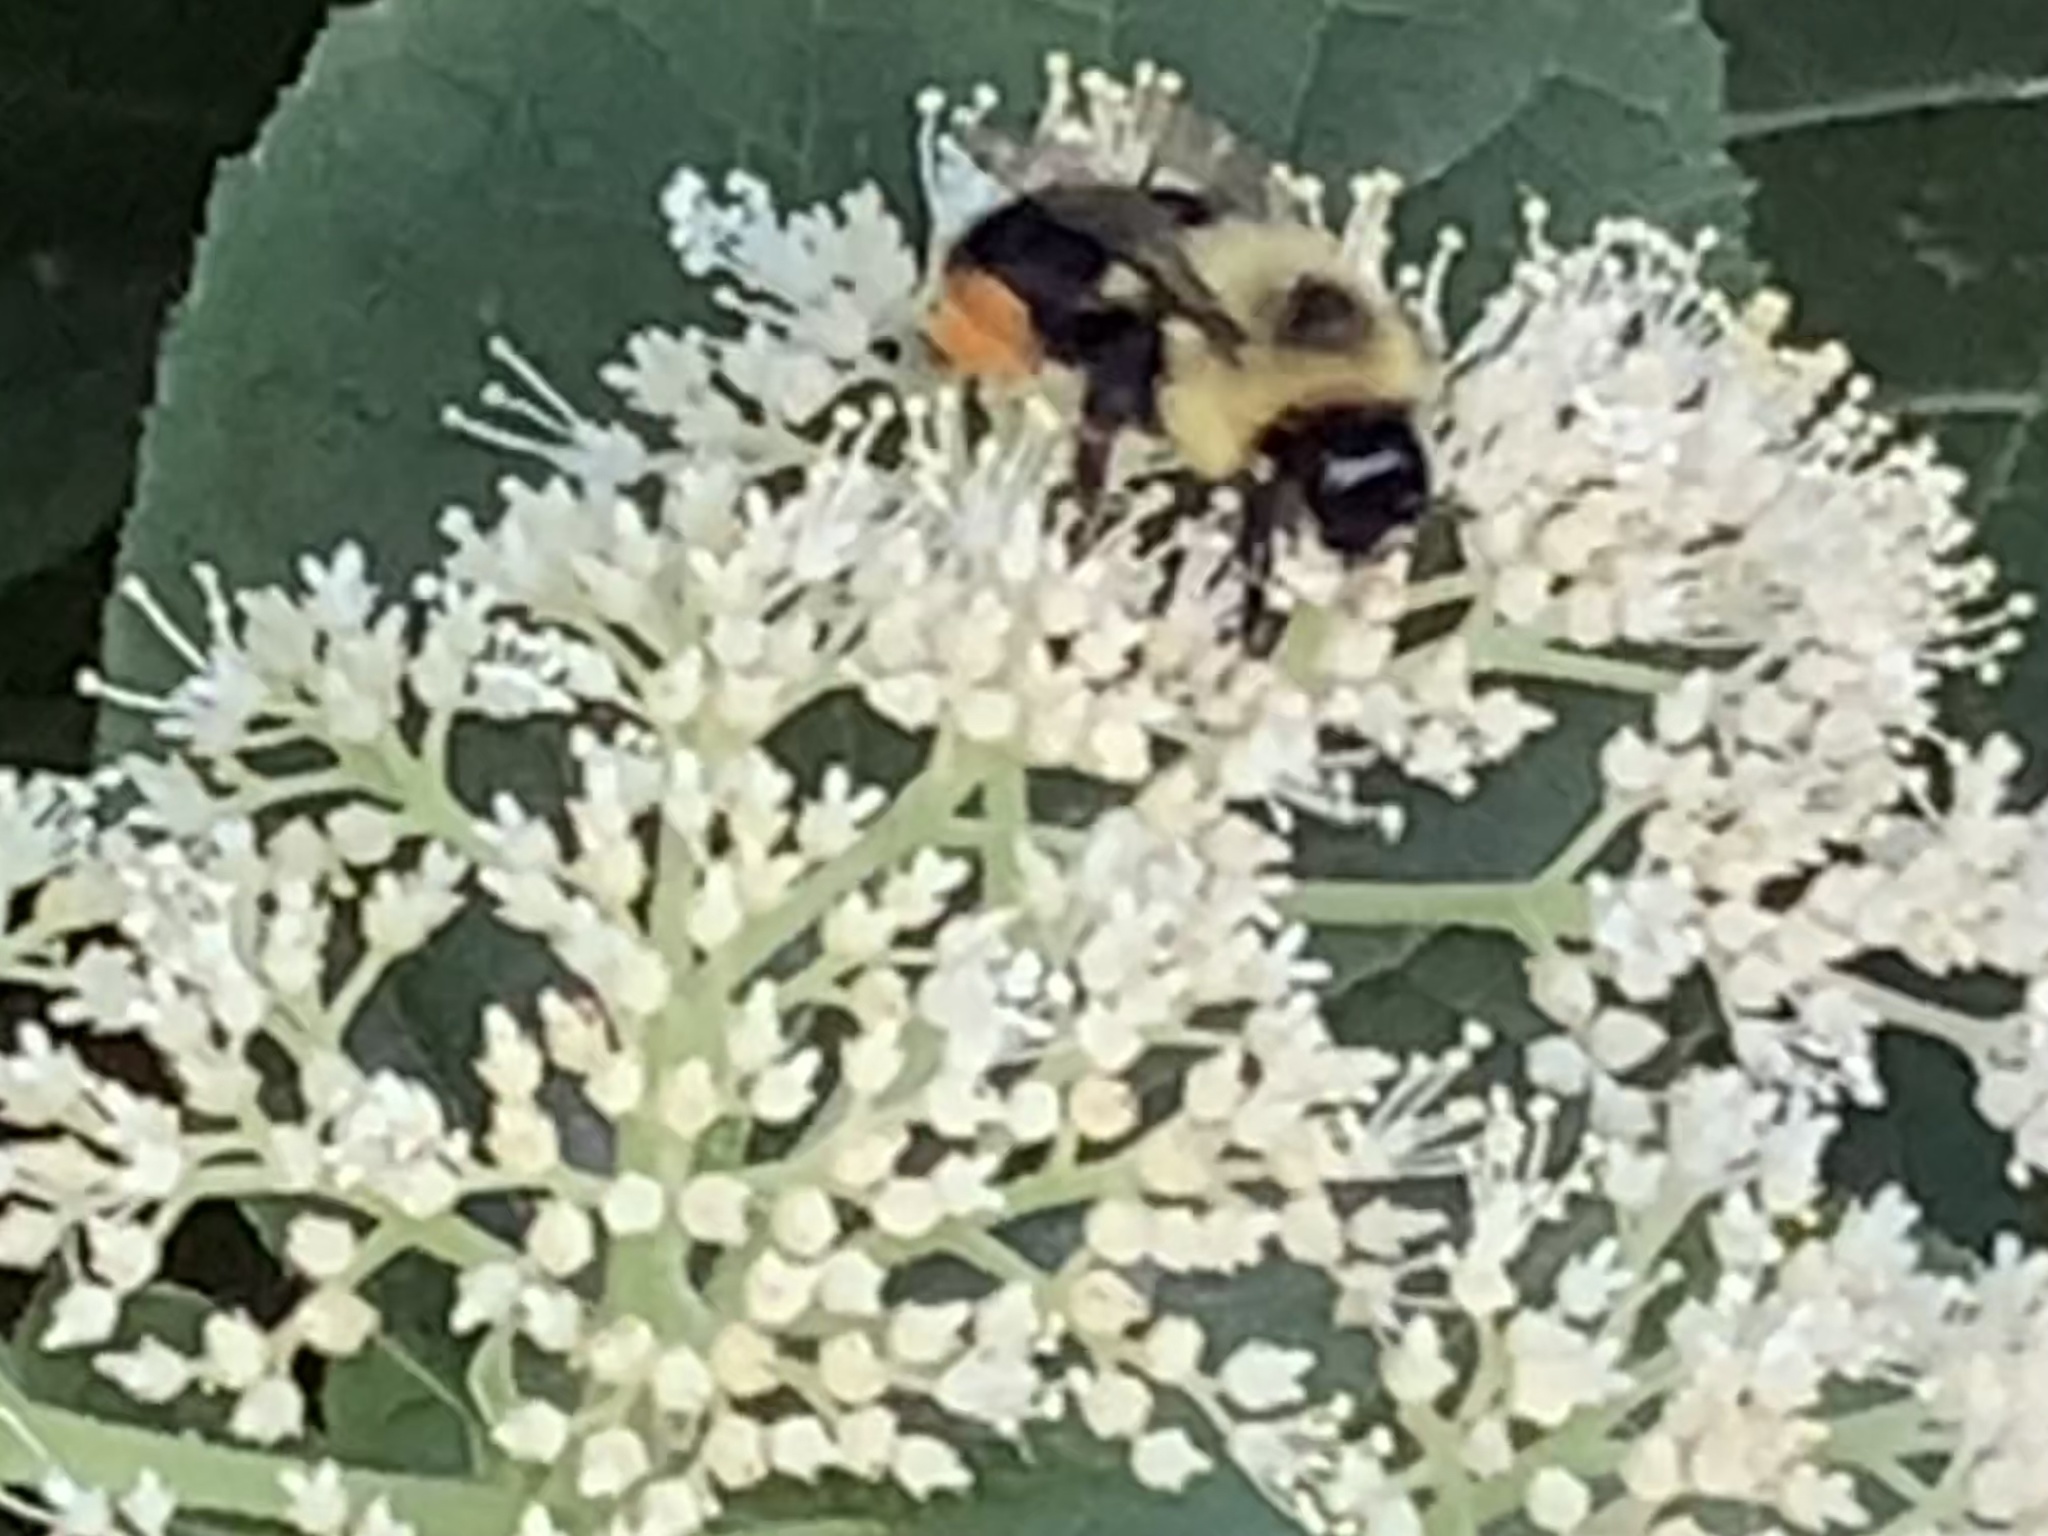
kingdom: Animalia
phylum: Arthropoda
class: Insecta
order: Hymenoptera
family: Apidae
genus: Bombus
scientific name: Bombus impatiens
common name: Common eastern bumble bee
